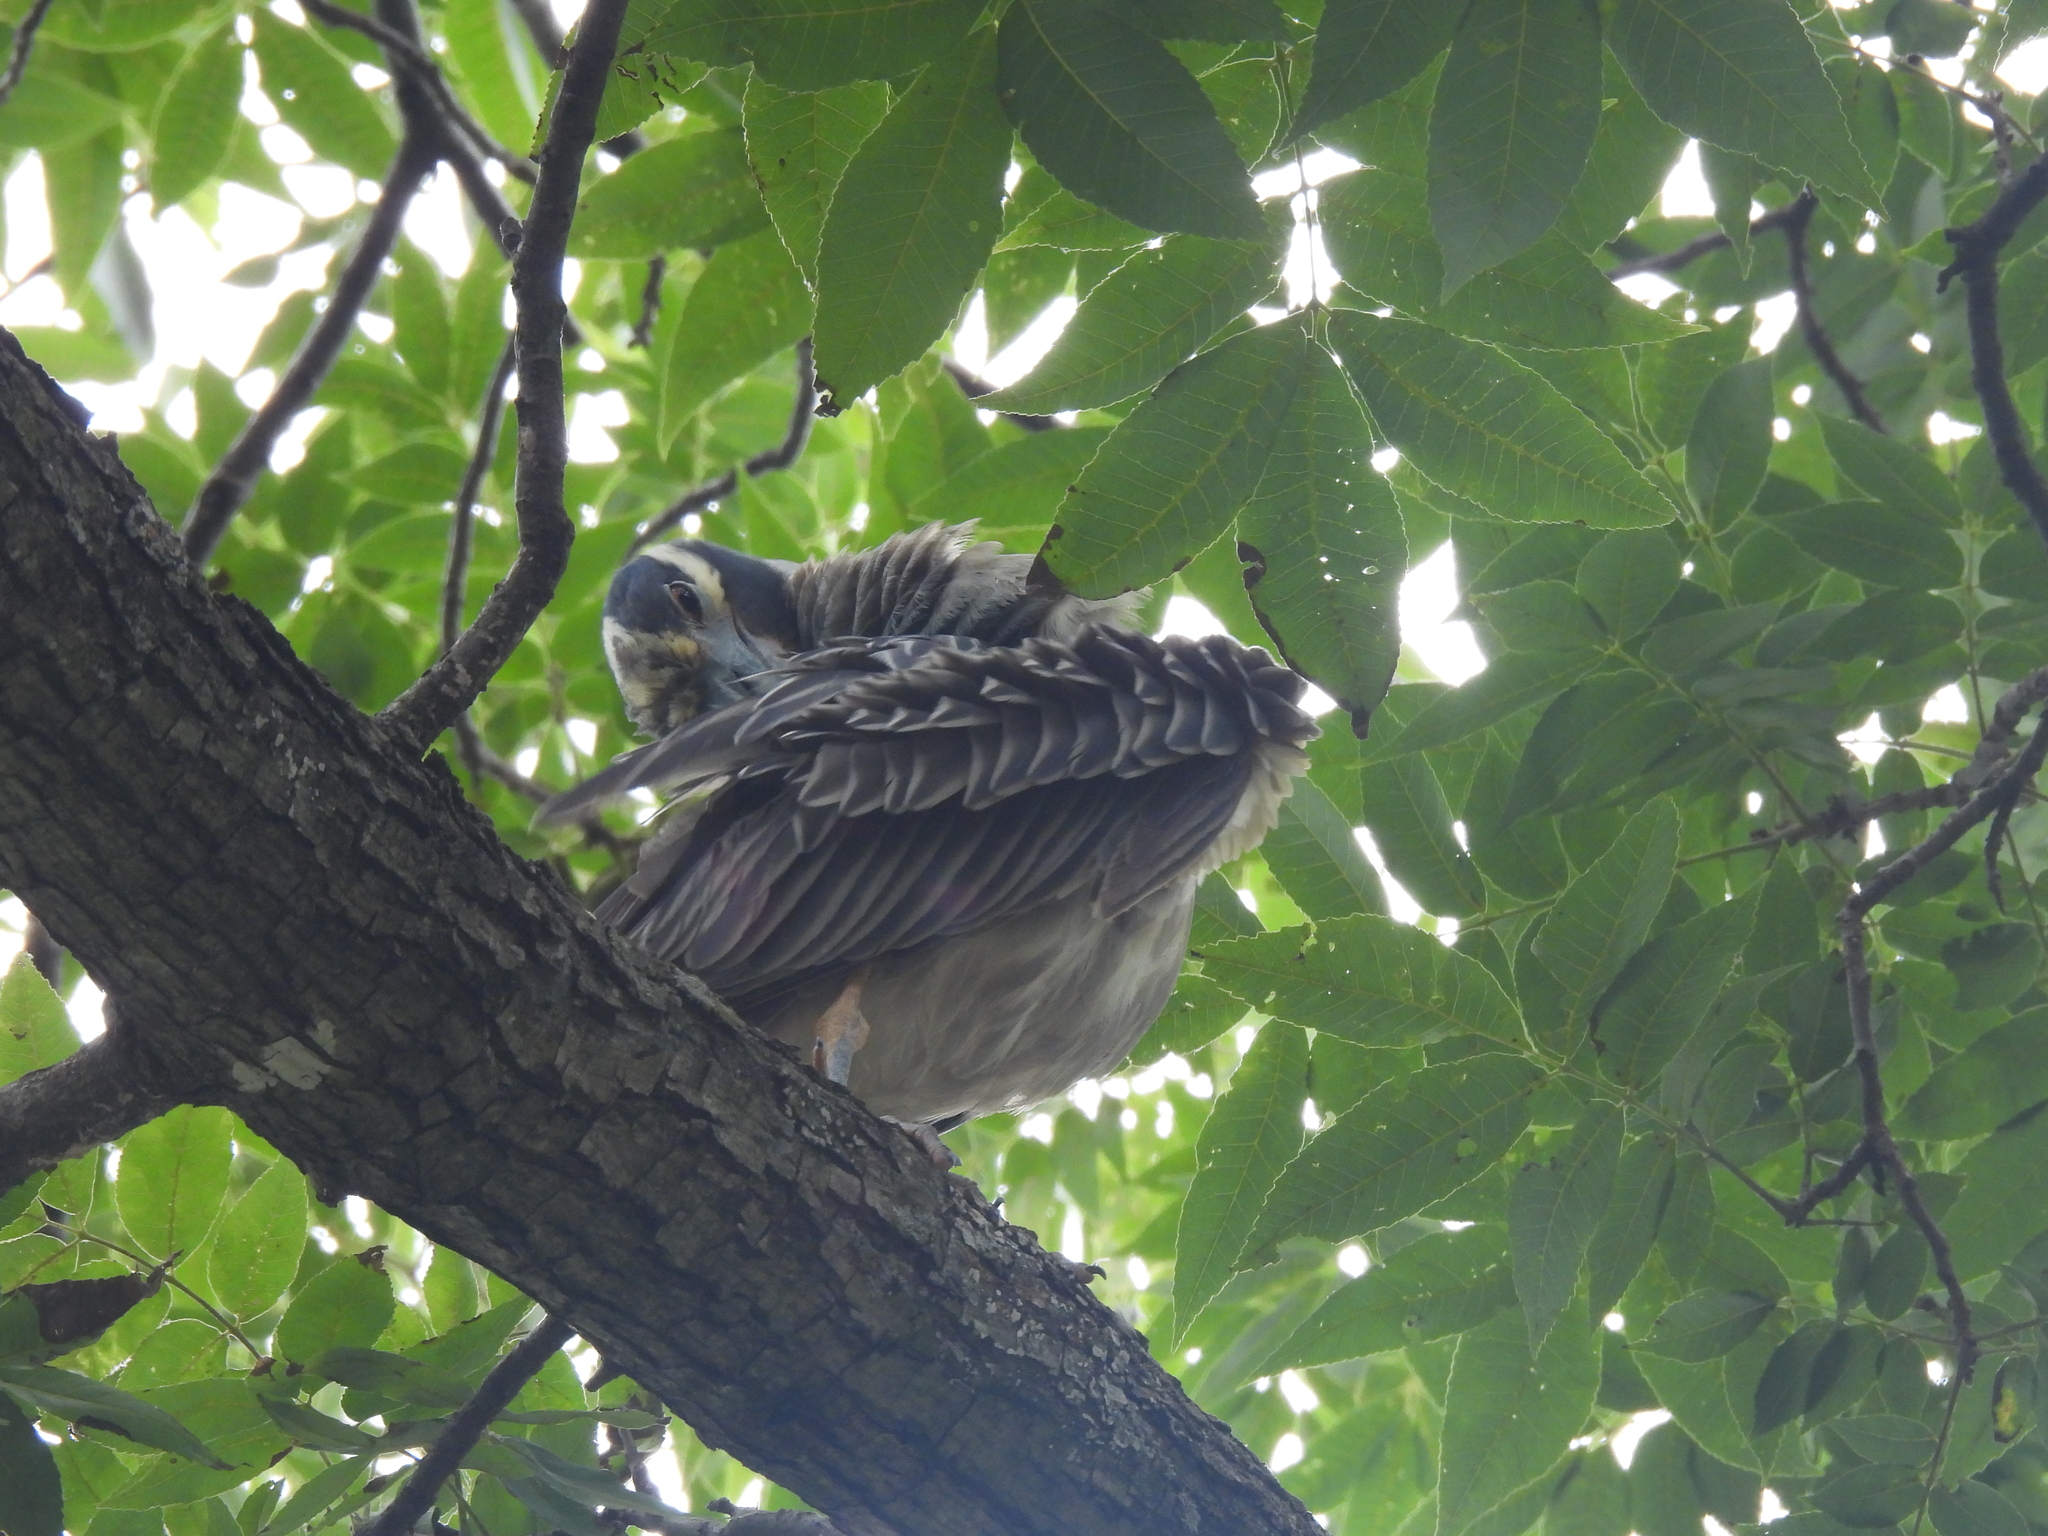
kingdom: Animalia
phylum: Chordata
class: Aves
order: Pelecaniformes
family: Ardeidae
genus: Nyctanassa
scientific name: Nyctanassa violacea
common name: Yellow-crowned night heron
